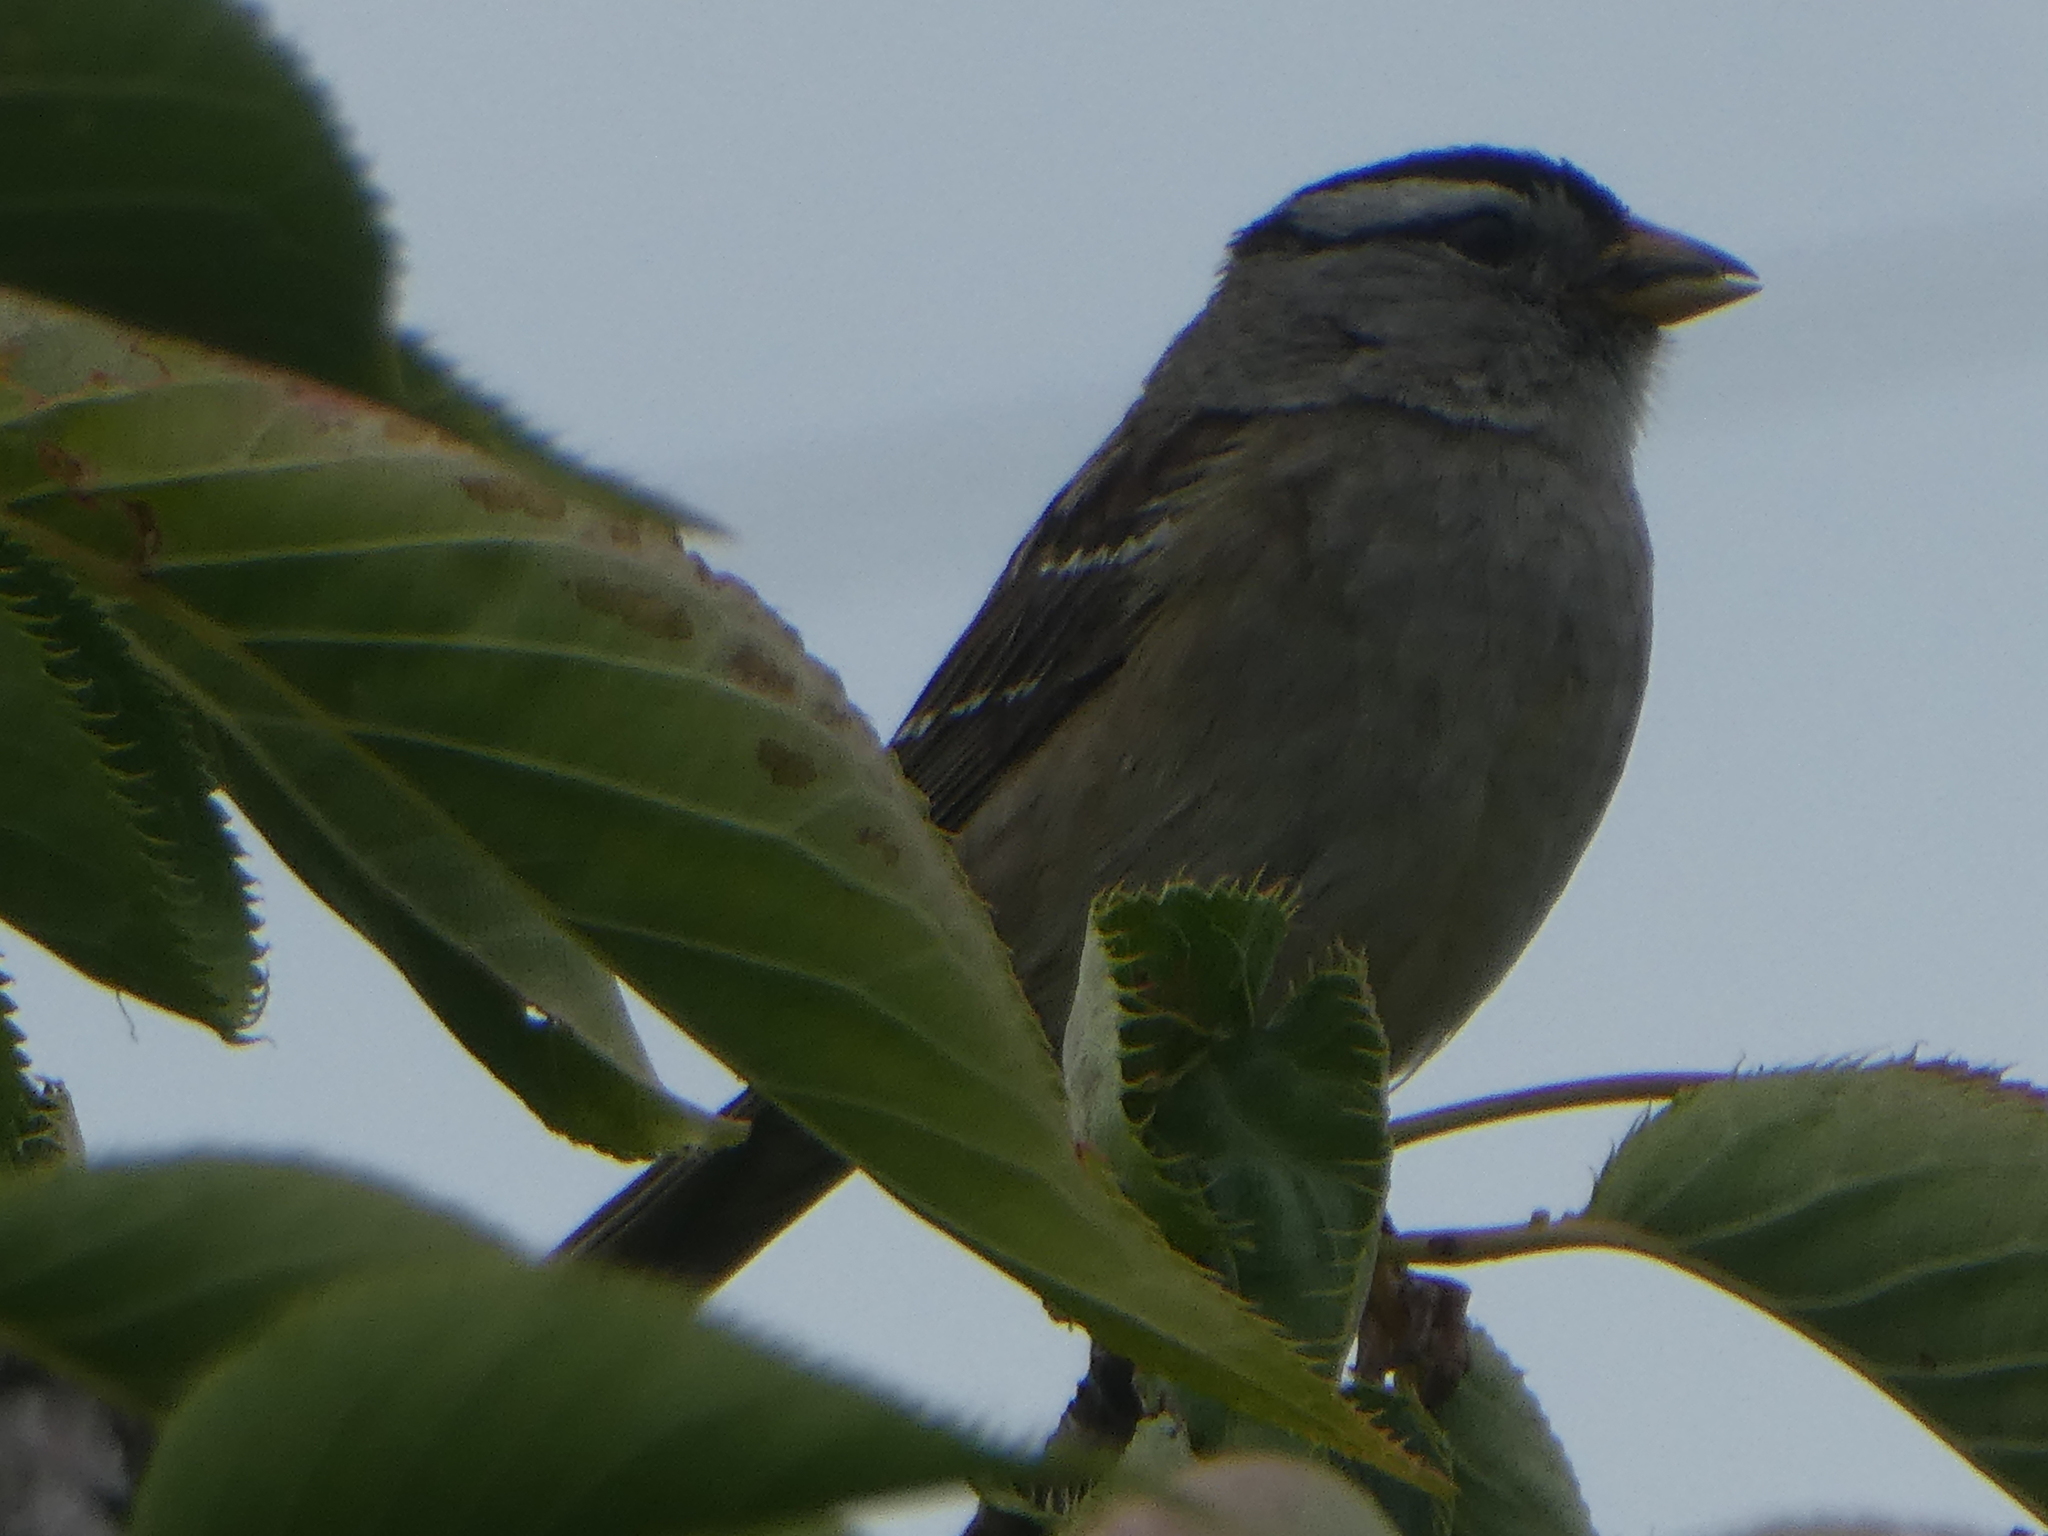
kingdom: Animalia
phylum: Chordata
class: Aves
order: Passeriformes
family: Passerellidae
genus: Zonotrichia
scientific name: Zonotrichia leucophrys
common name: White-crowned sparrow
